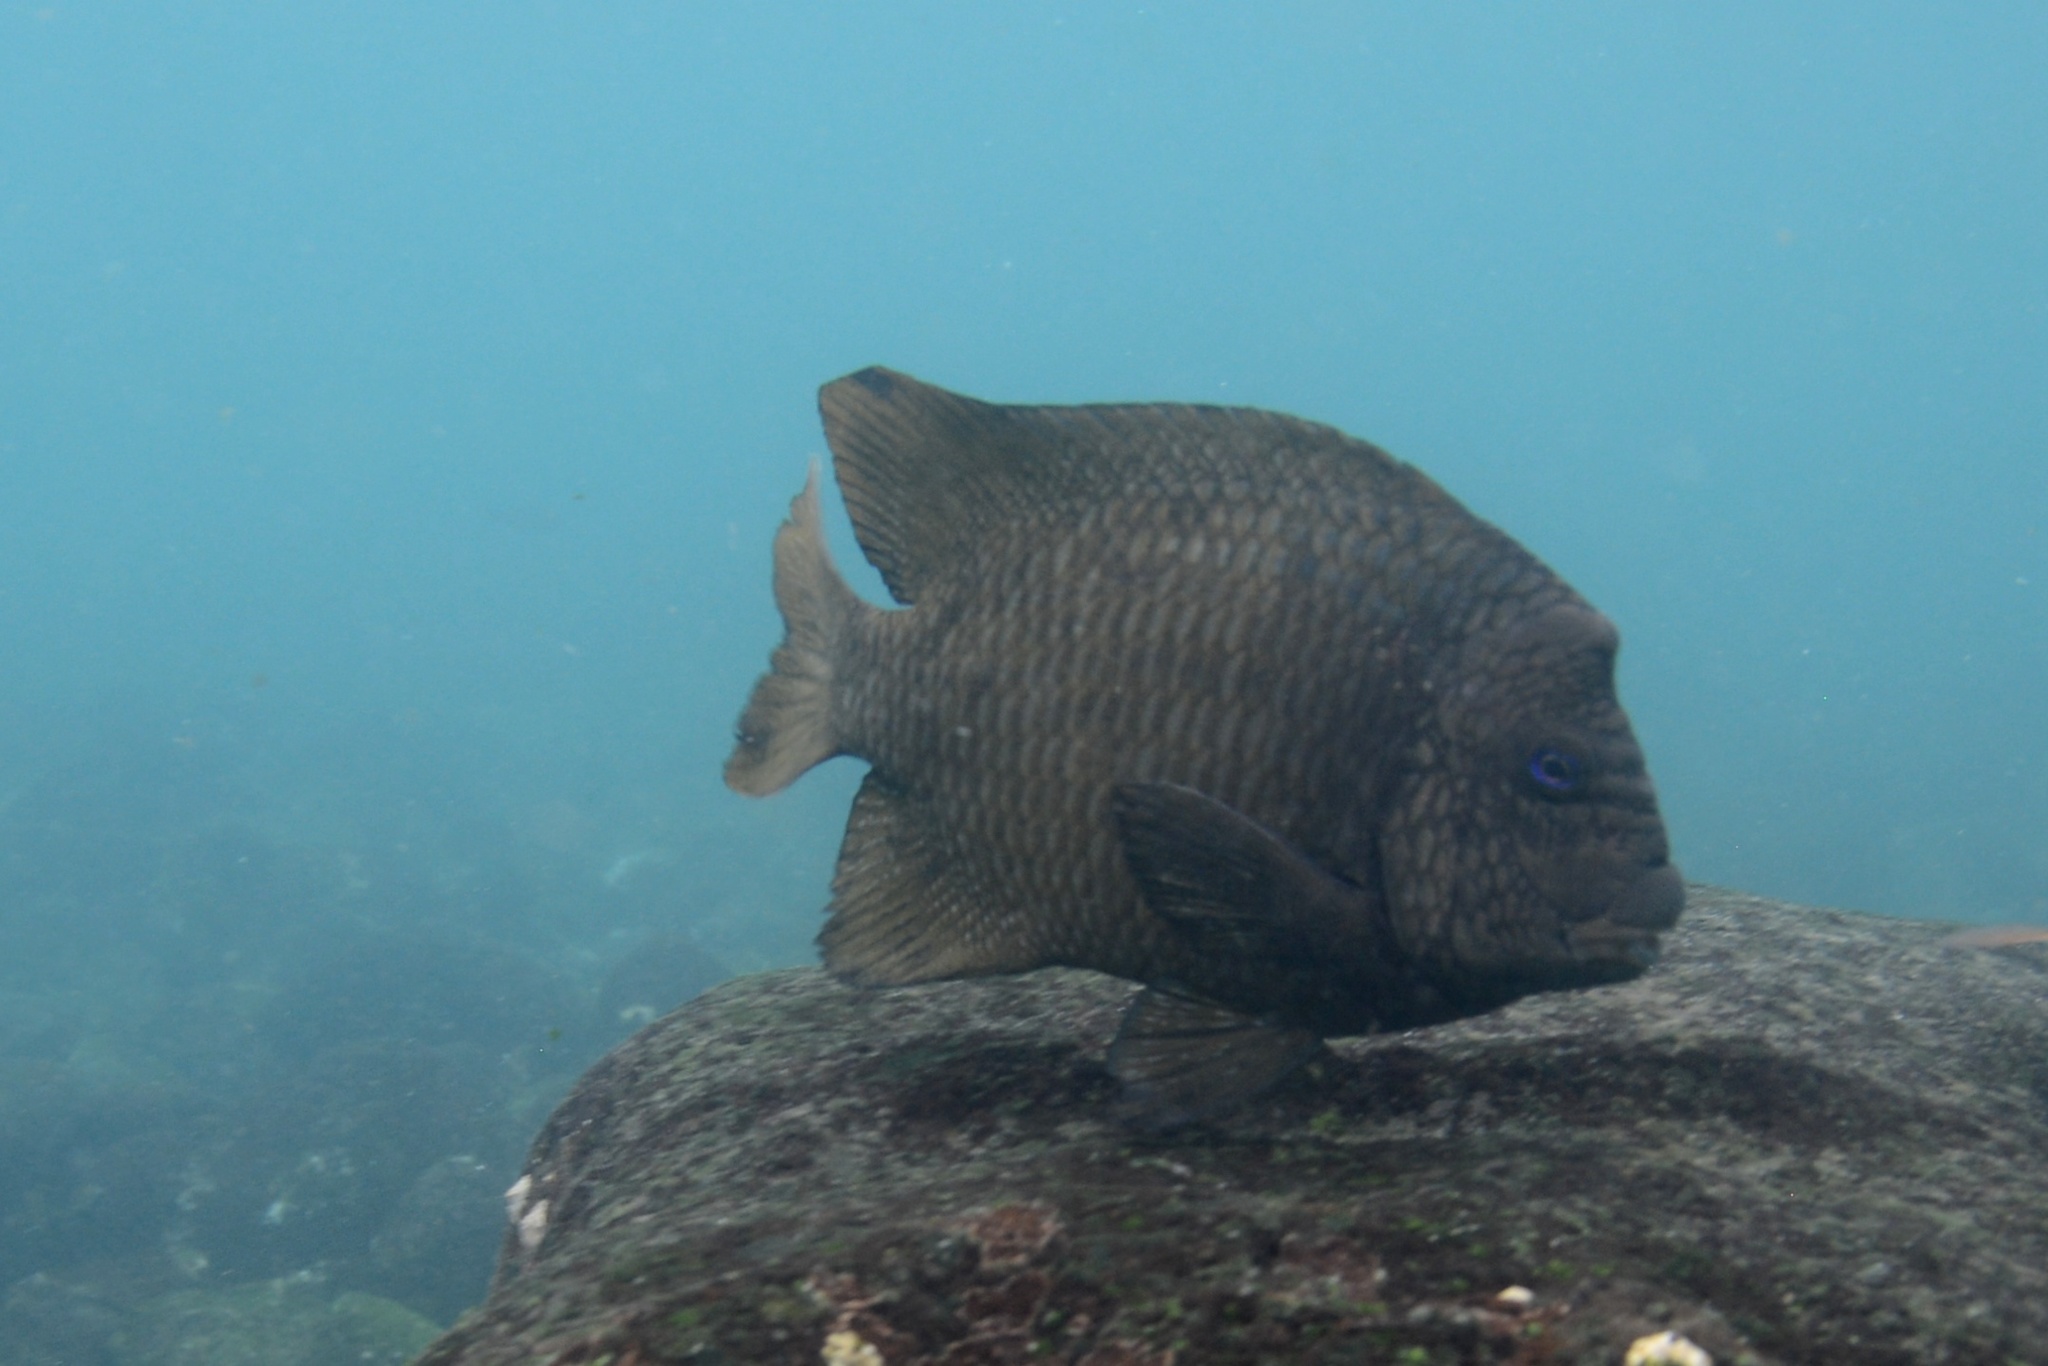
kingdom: Animalia
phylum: Chordata
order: Perciformes
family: Pomacentridae
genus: Microspathodon
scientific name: Microspathodon bairdii
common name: Bumphead damselfish
